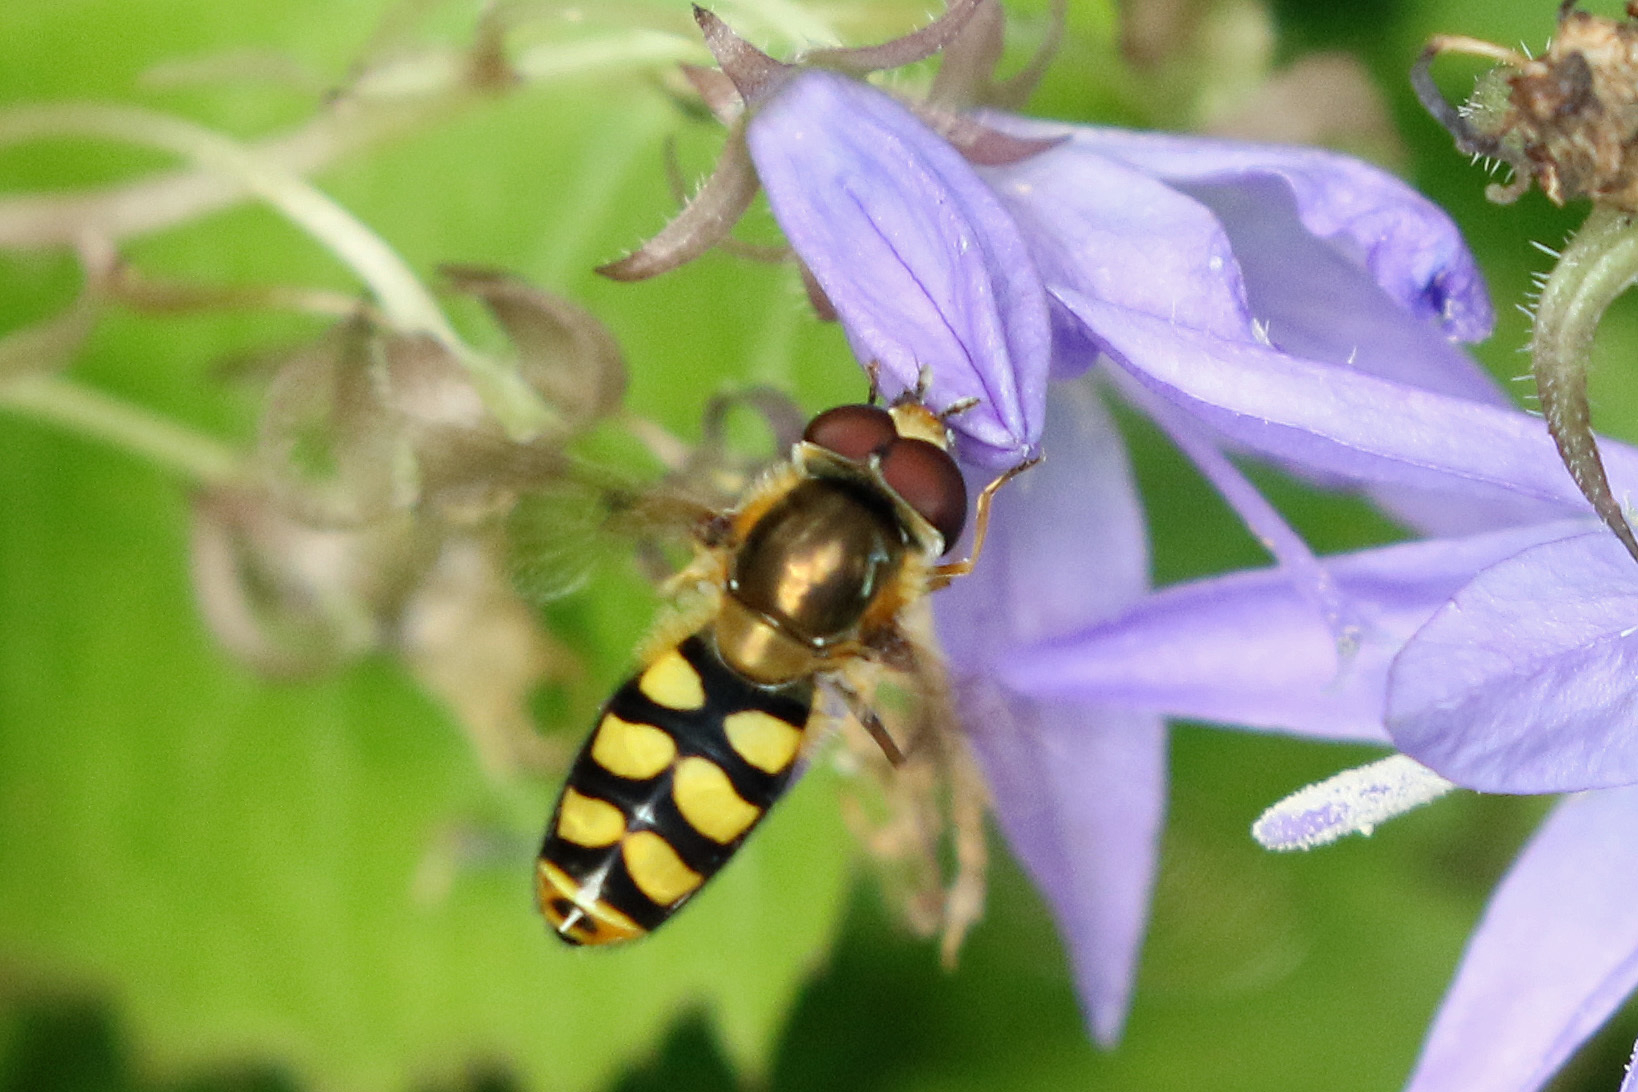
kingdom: Animalia
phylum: Arthropoda
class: Insecta
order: Diptera
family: Syrphidae
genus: Eupeodes
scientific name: Eupeodes luniger
